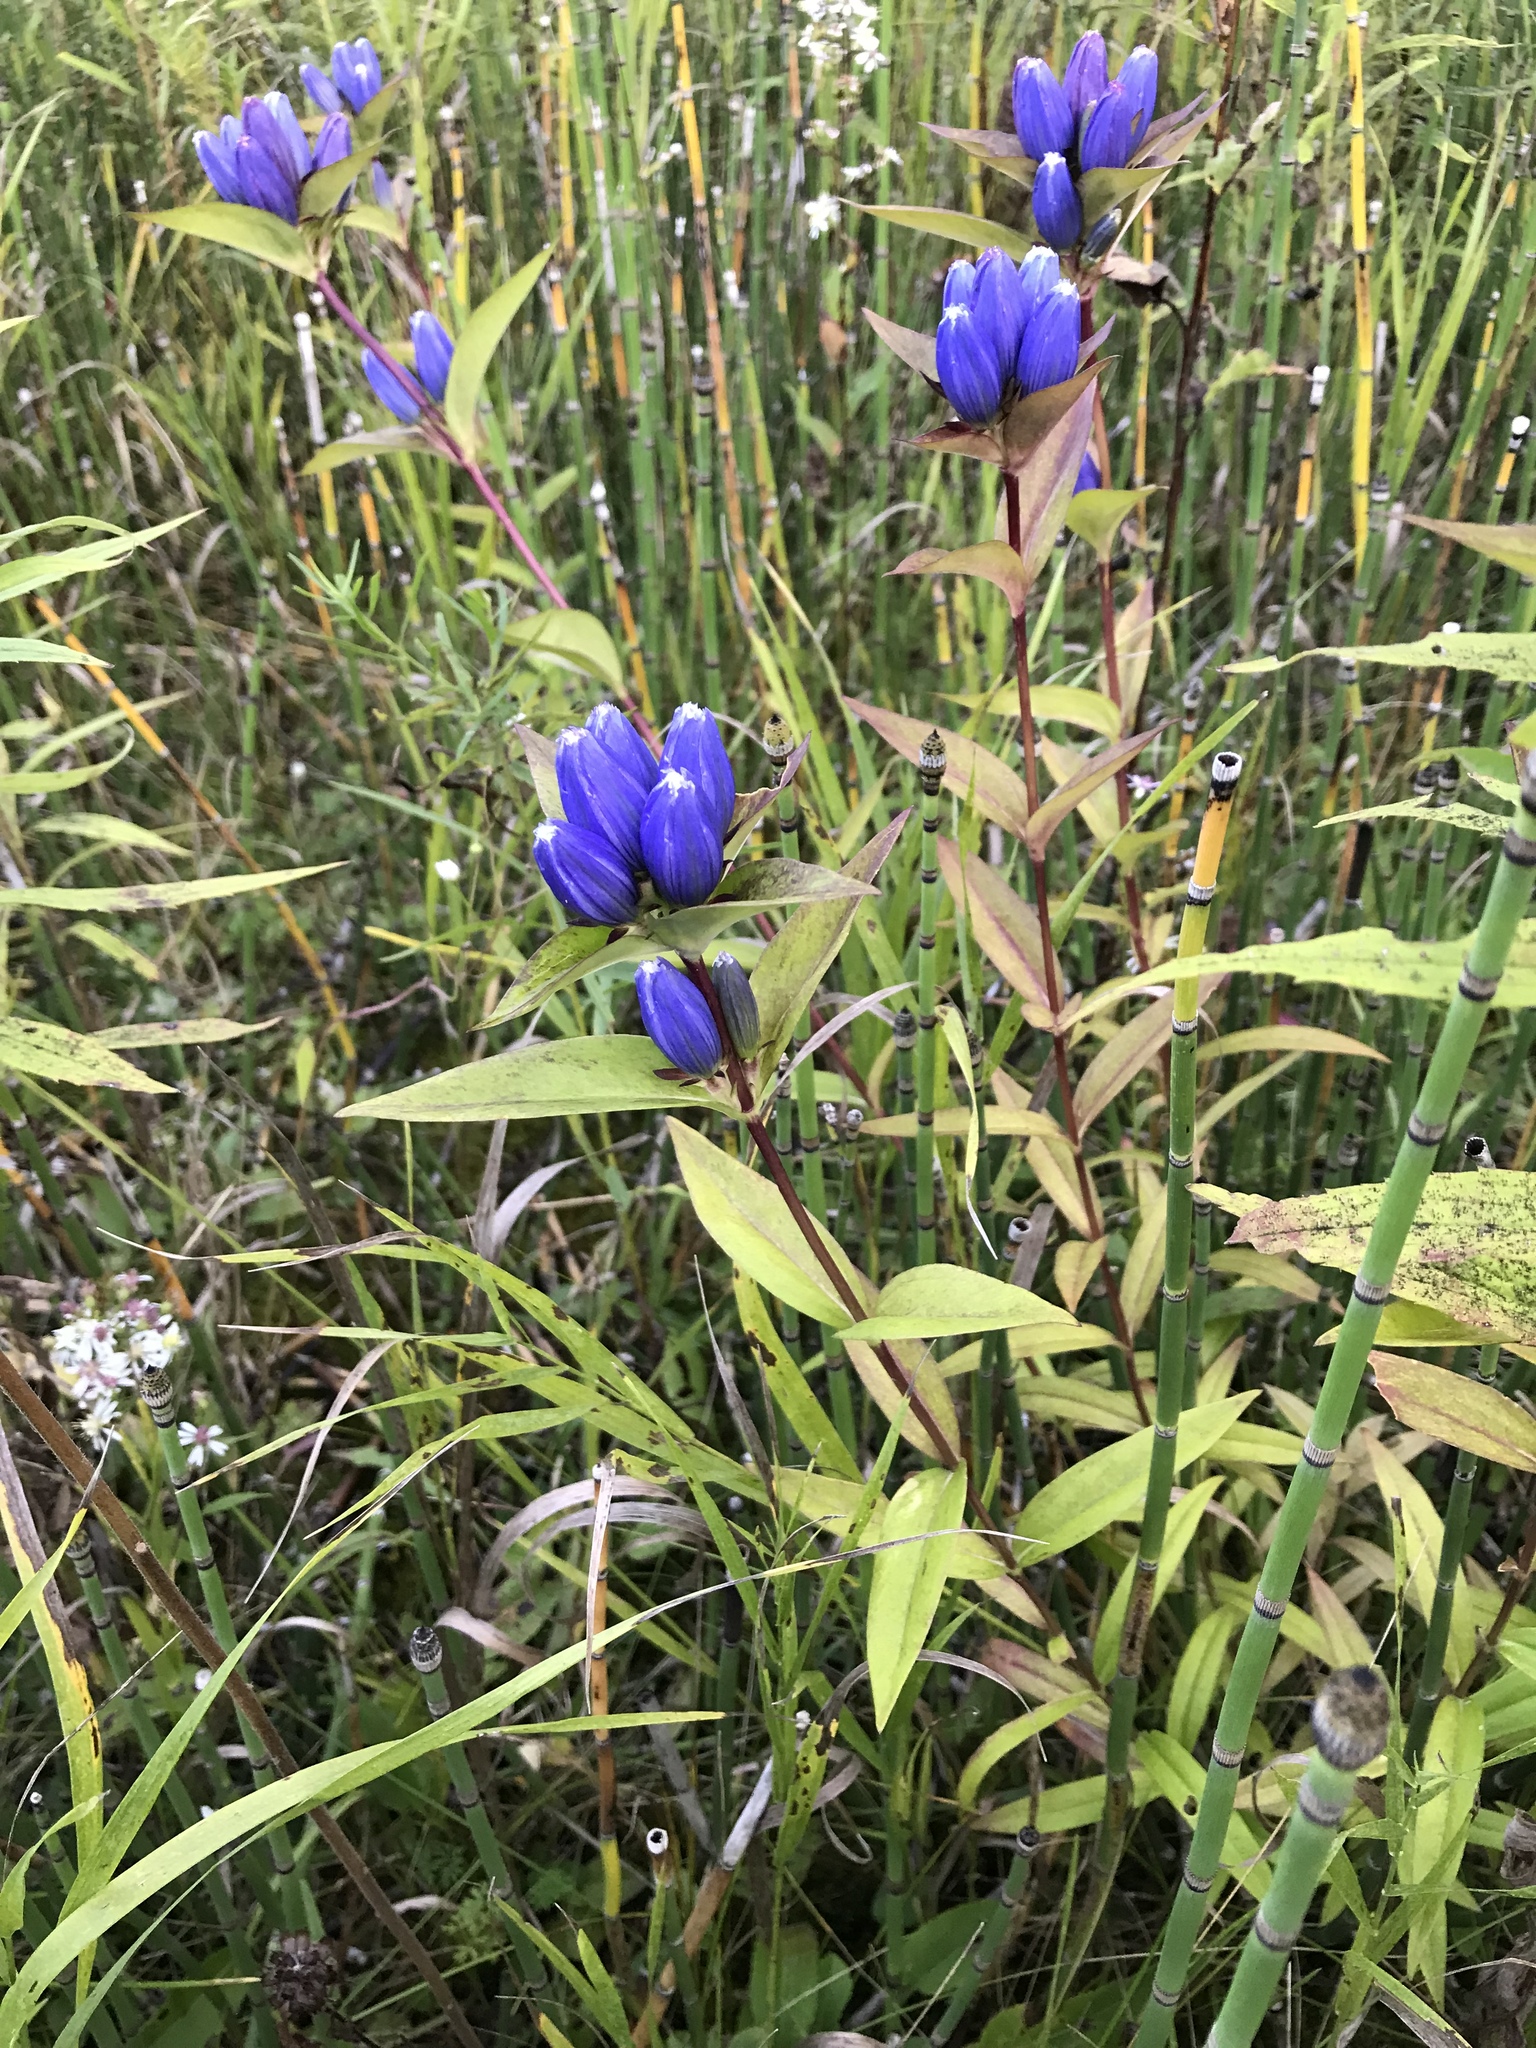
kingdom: Plantae
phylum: Tracheophyta
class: Magnoliopsida
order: Gentianales
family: Gentianaceae
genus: Gentiana
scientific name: Gentiana andrewsii
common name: Bottle gentian
